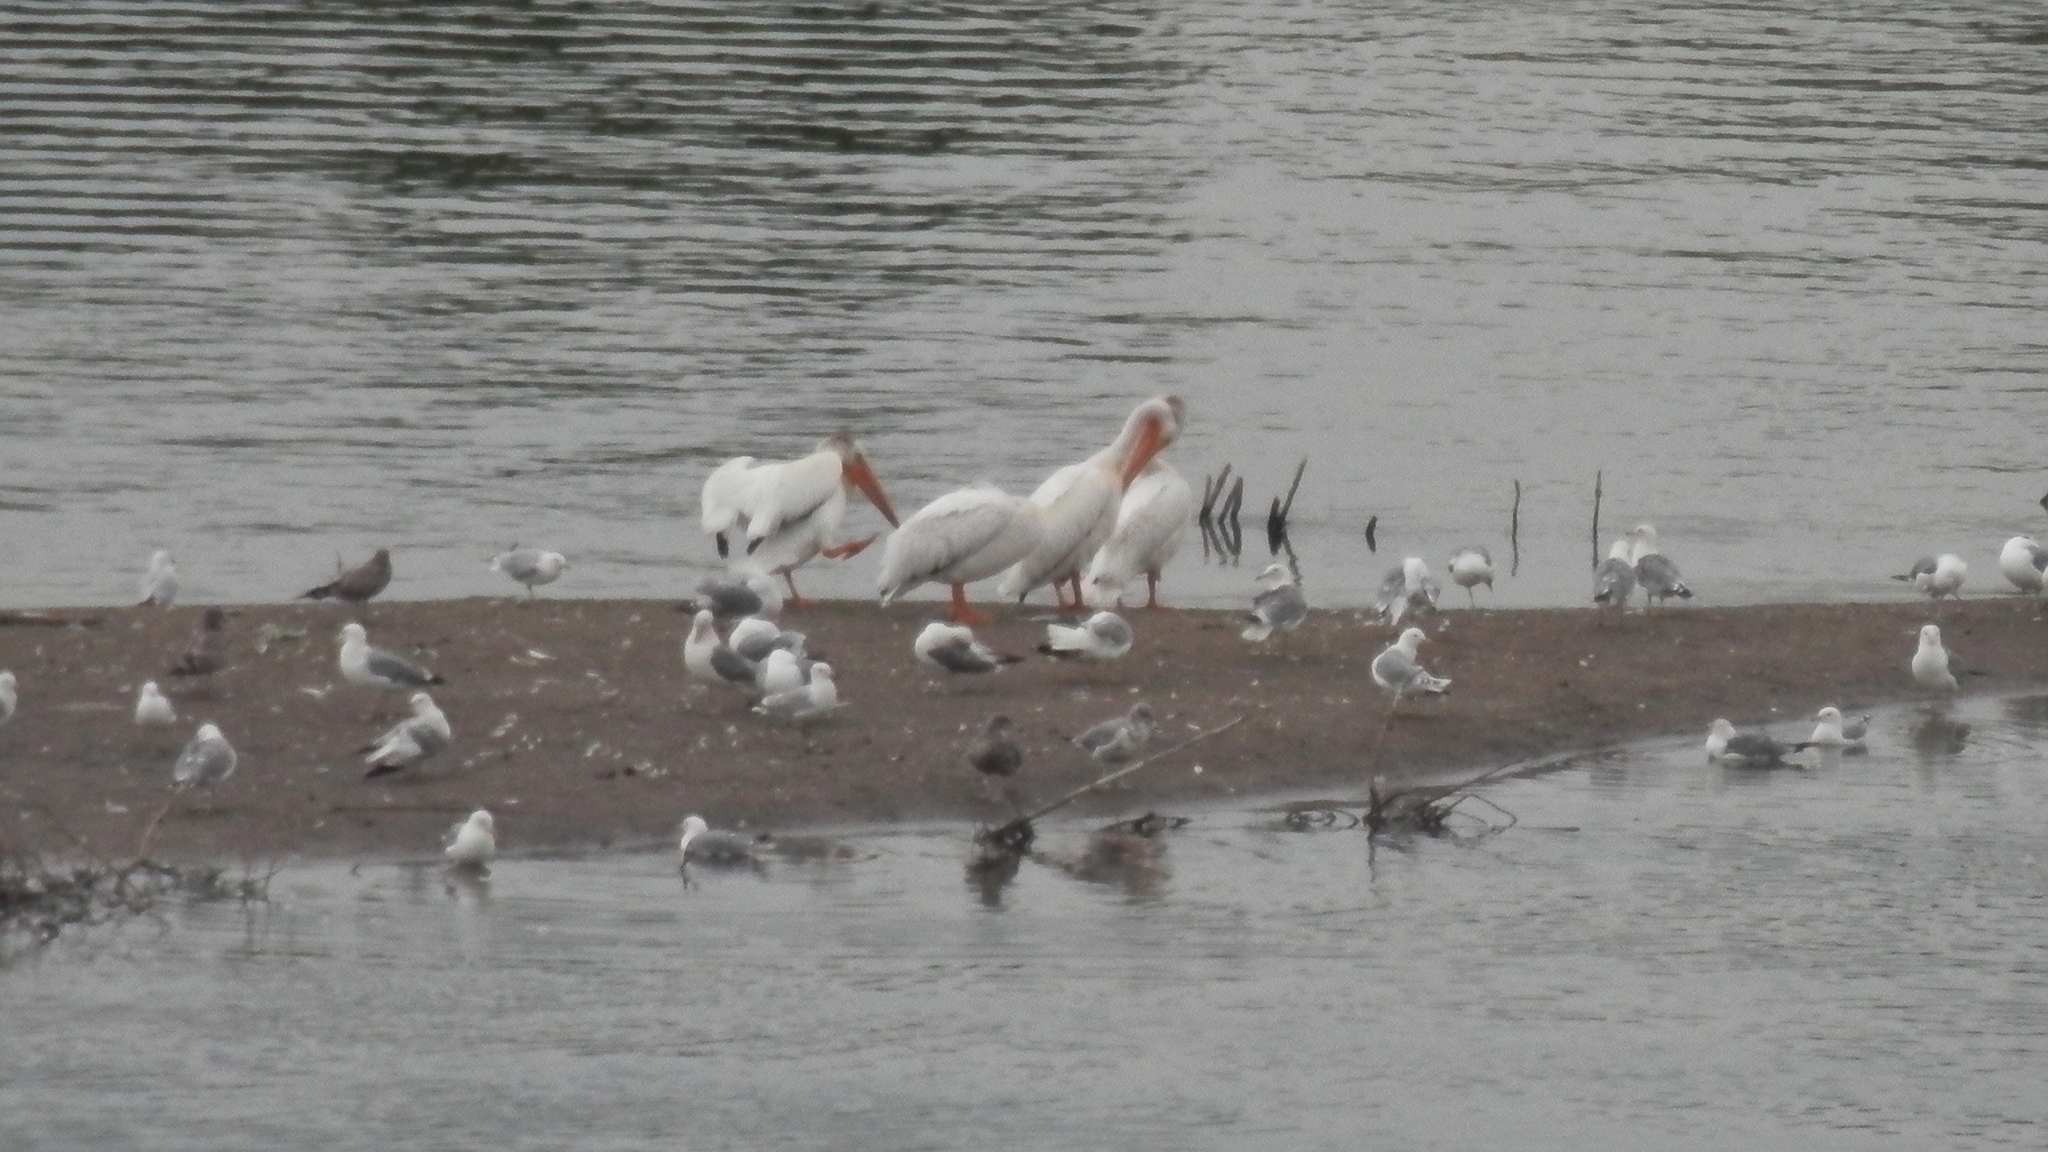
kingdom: Animalia
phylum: Chordata
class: Aves
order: Pelecaniformes
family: Pelecanidae
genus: Pelecanus
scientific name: Pelecanus erythrorhynchos
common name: American white pelican
